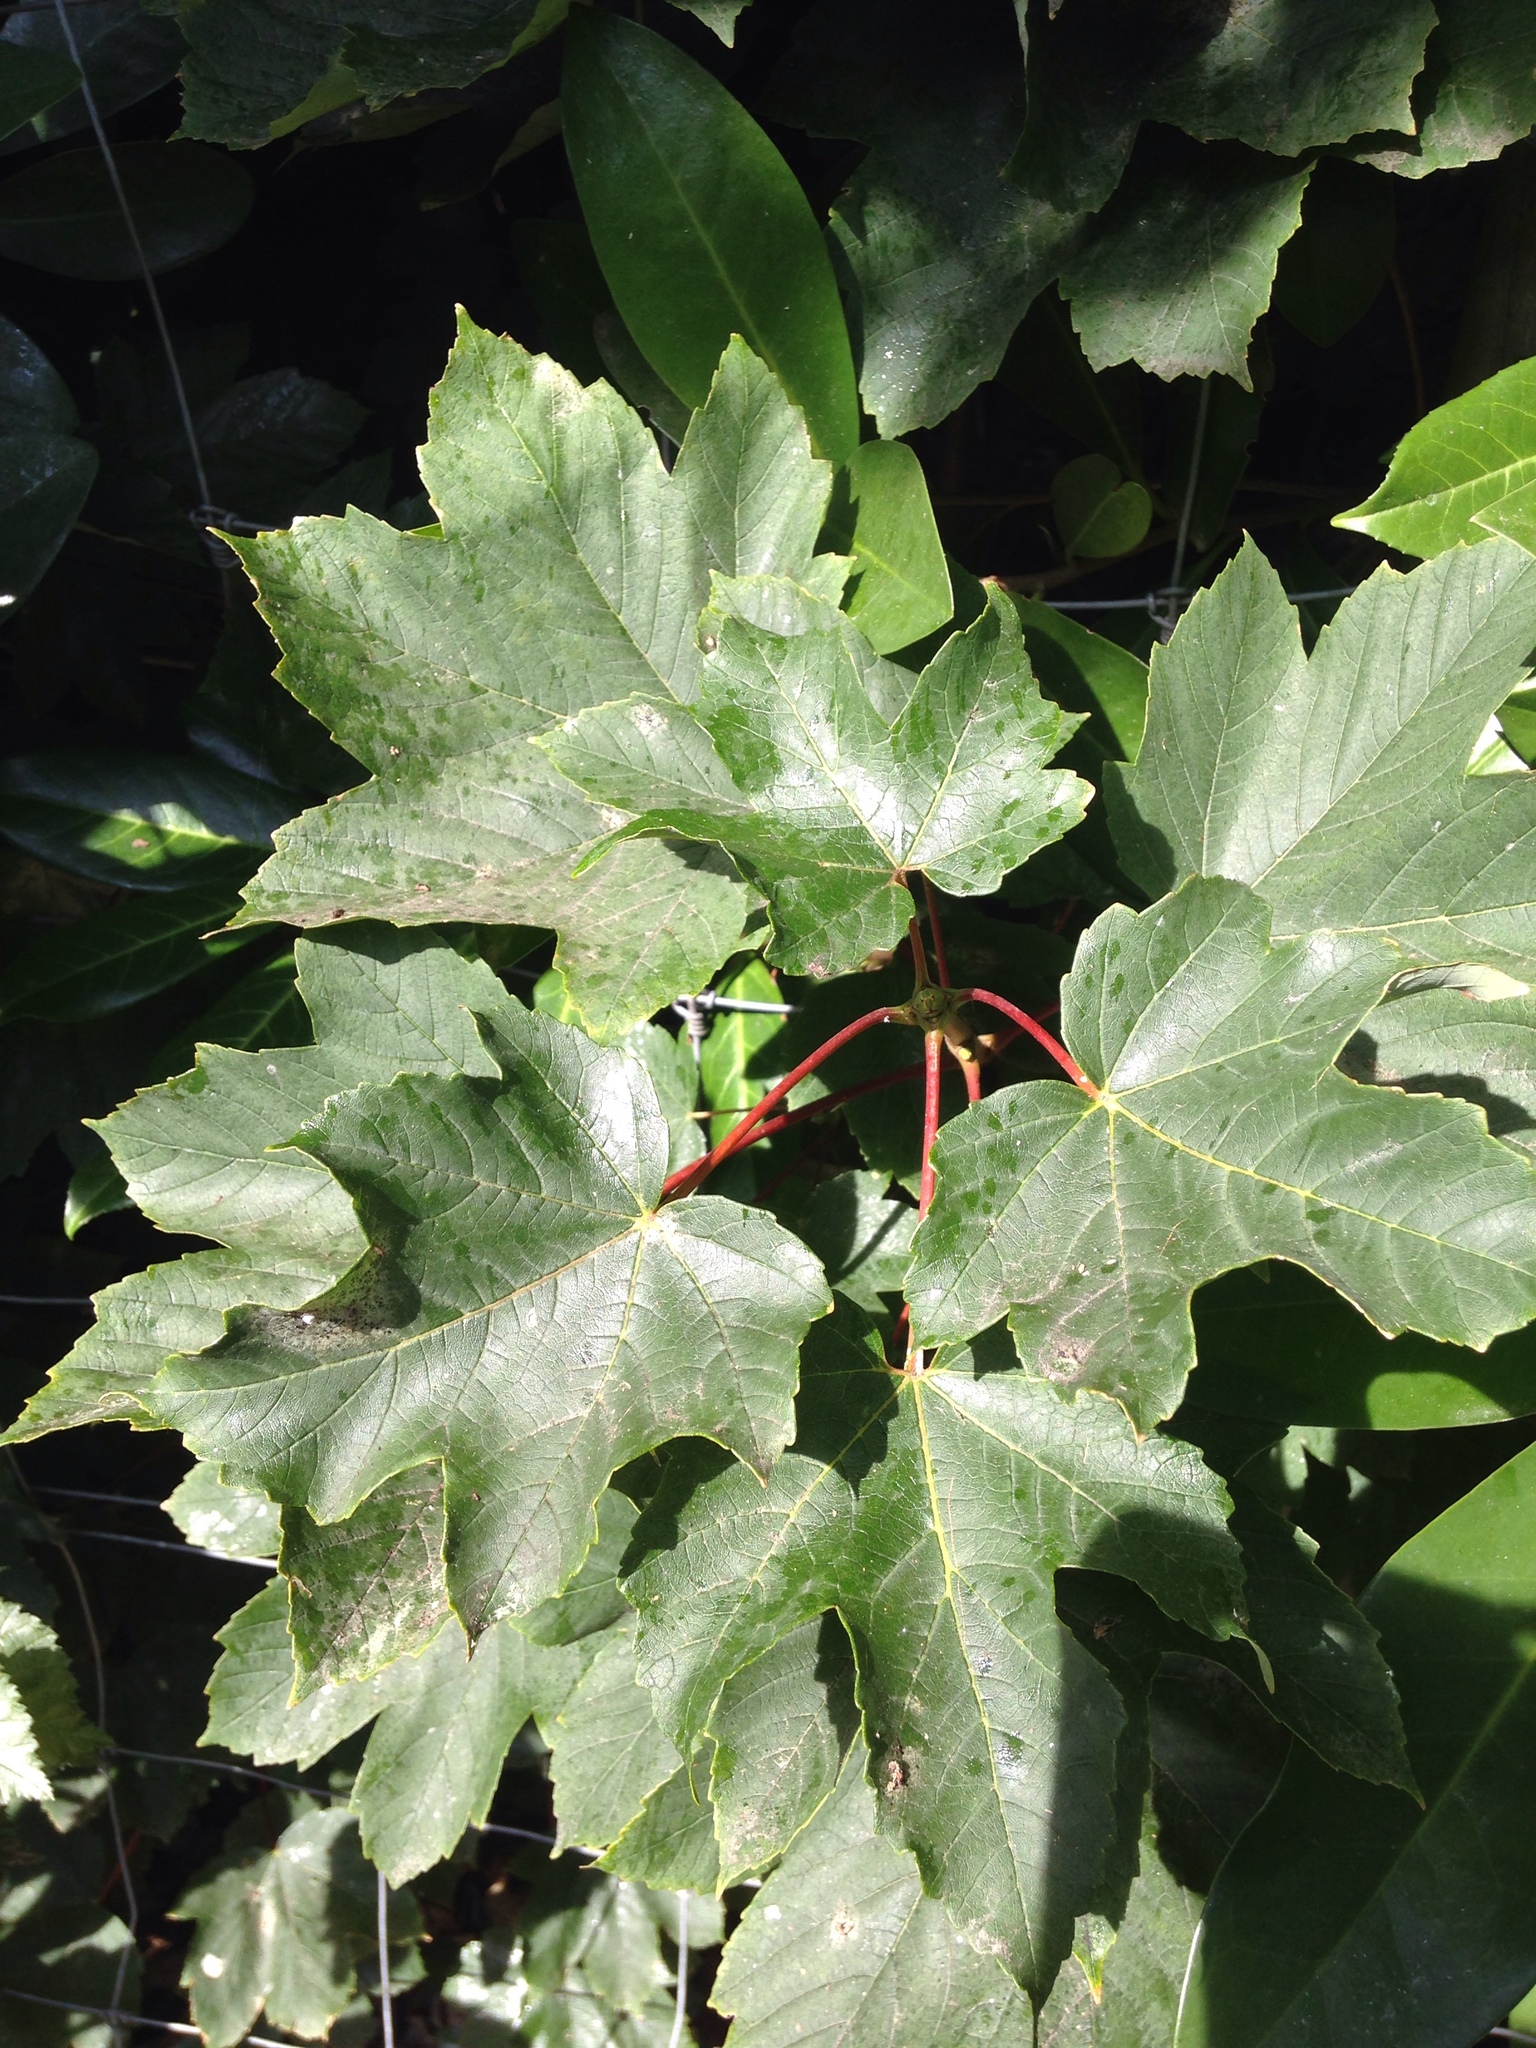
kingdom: Plantae
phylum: Tracheophyta
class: Magnoliopsida
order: Sapindales
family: Sapindaceae
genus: Acer
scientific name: Acer pseudoplatanus
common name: Sycamore
